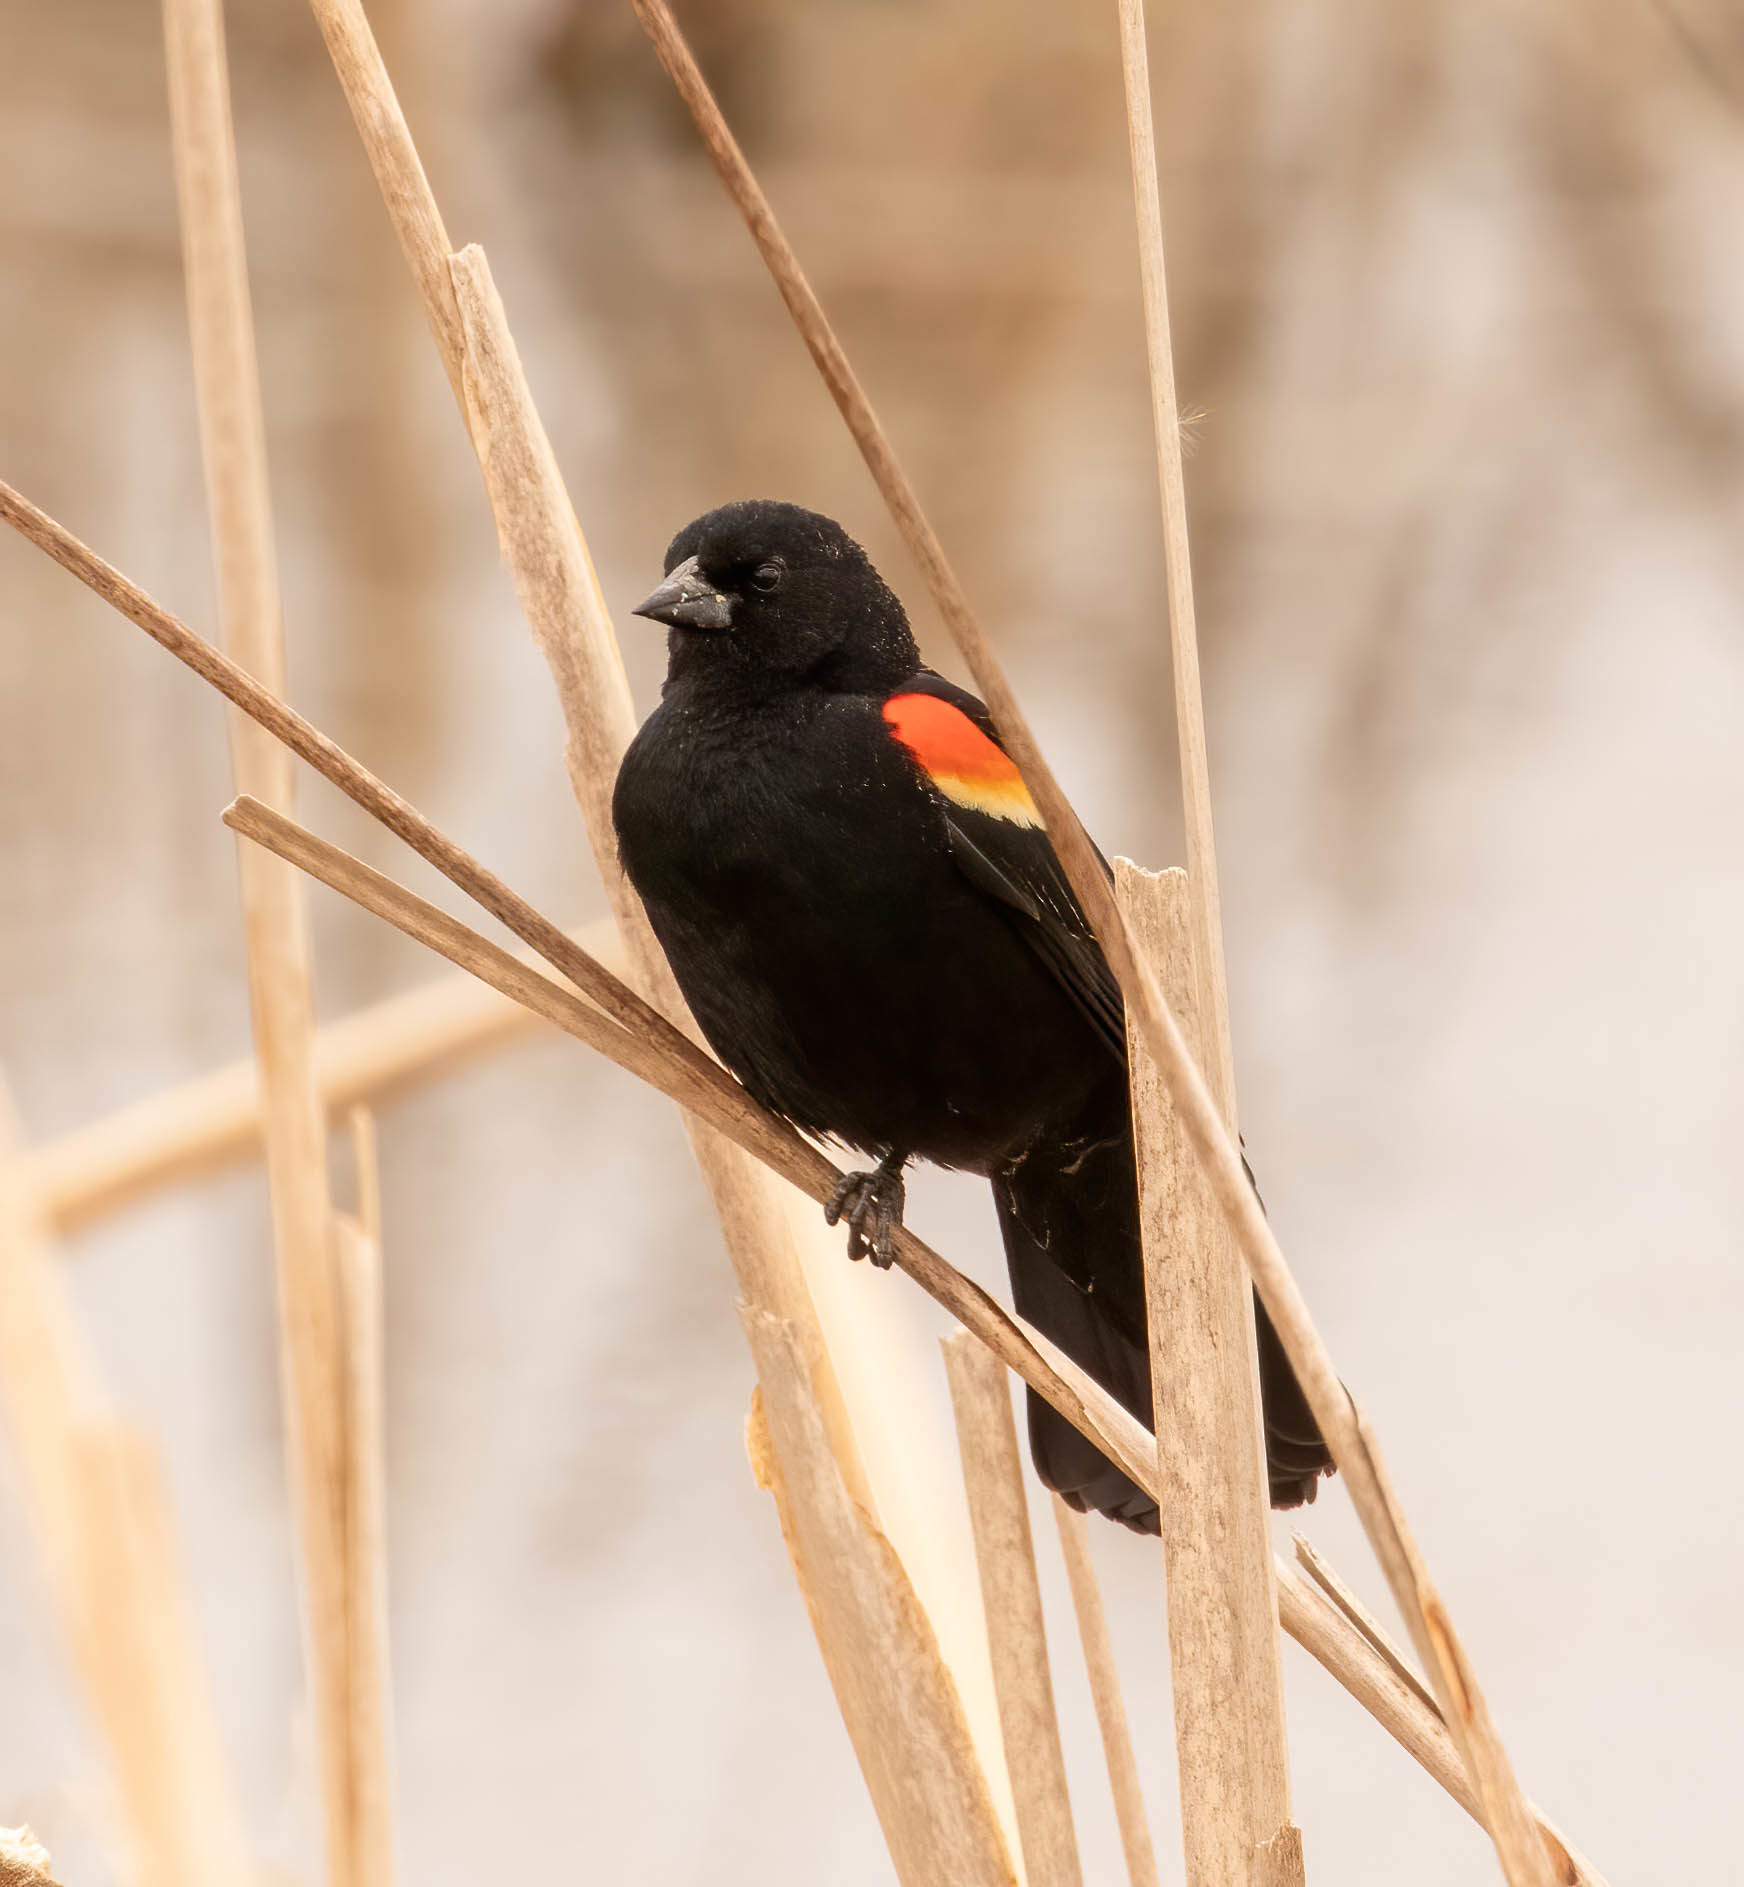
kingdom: Animalia
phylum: Chordata
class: Aves
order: Passeriformes
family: Icteridae
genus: Agelaius
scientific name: Agelaius phoeniceus
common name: Red-winged blackbird
